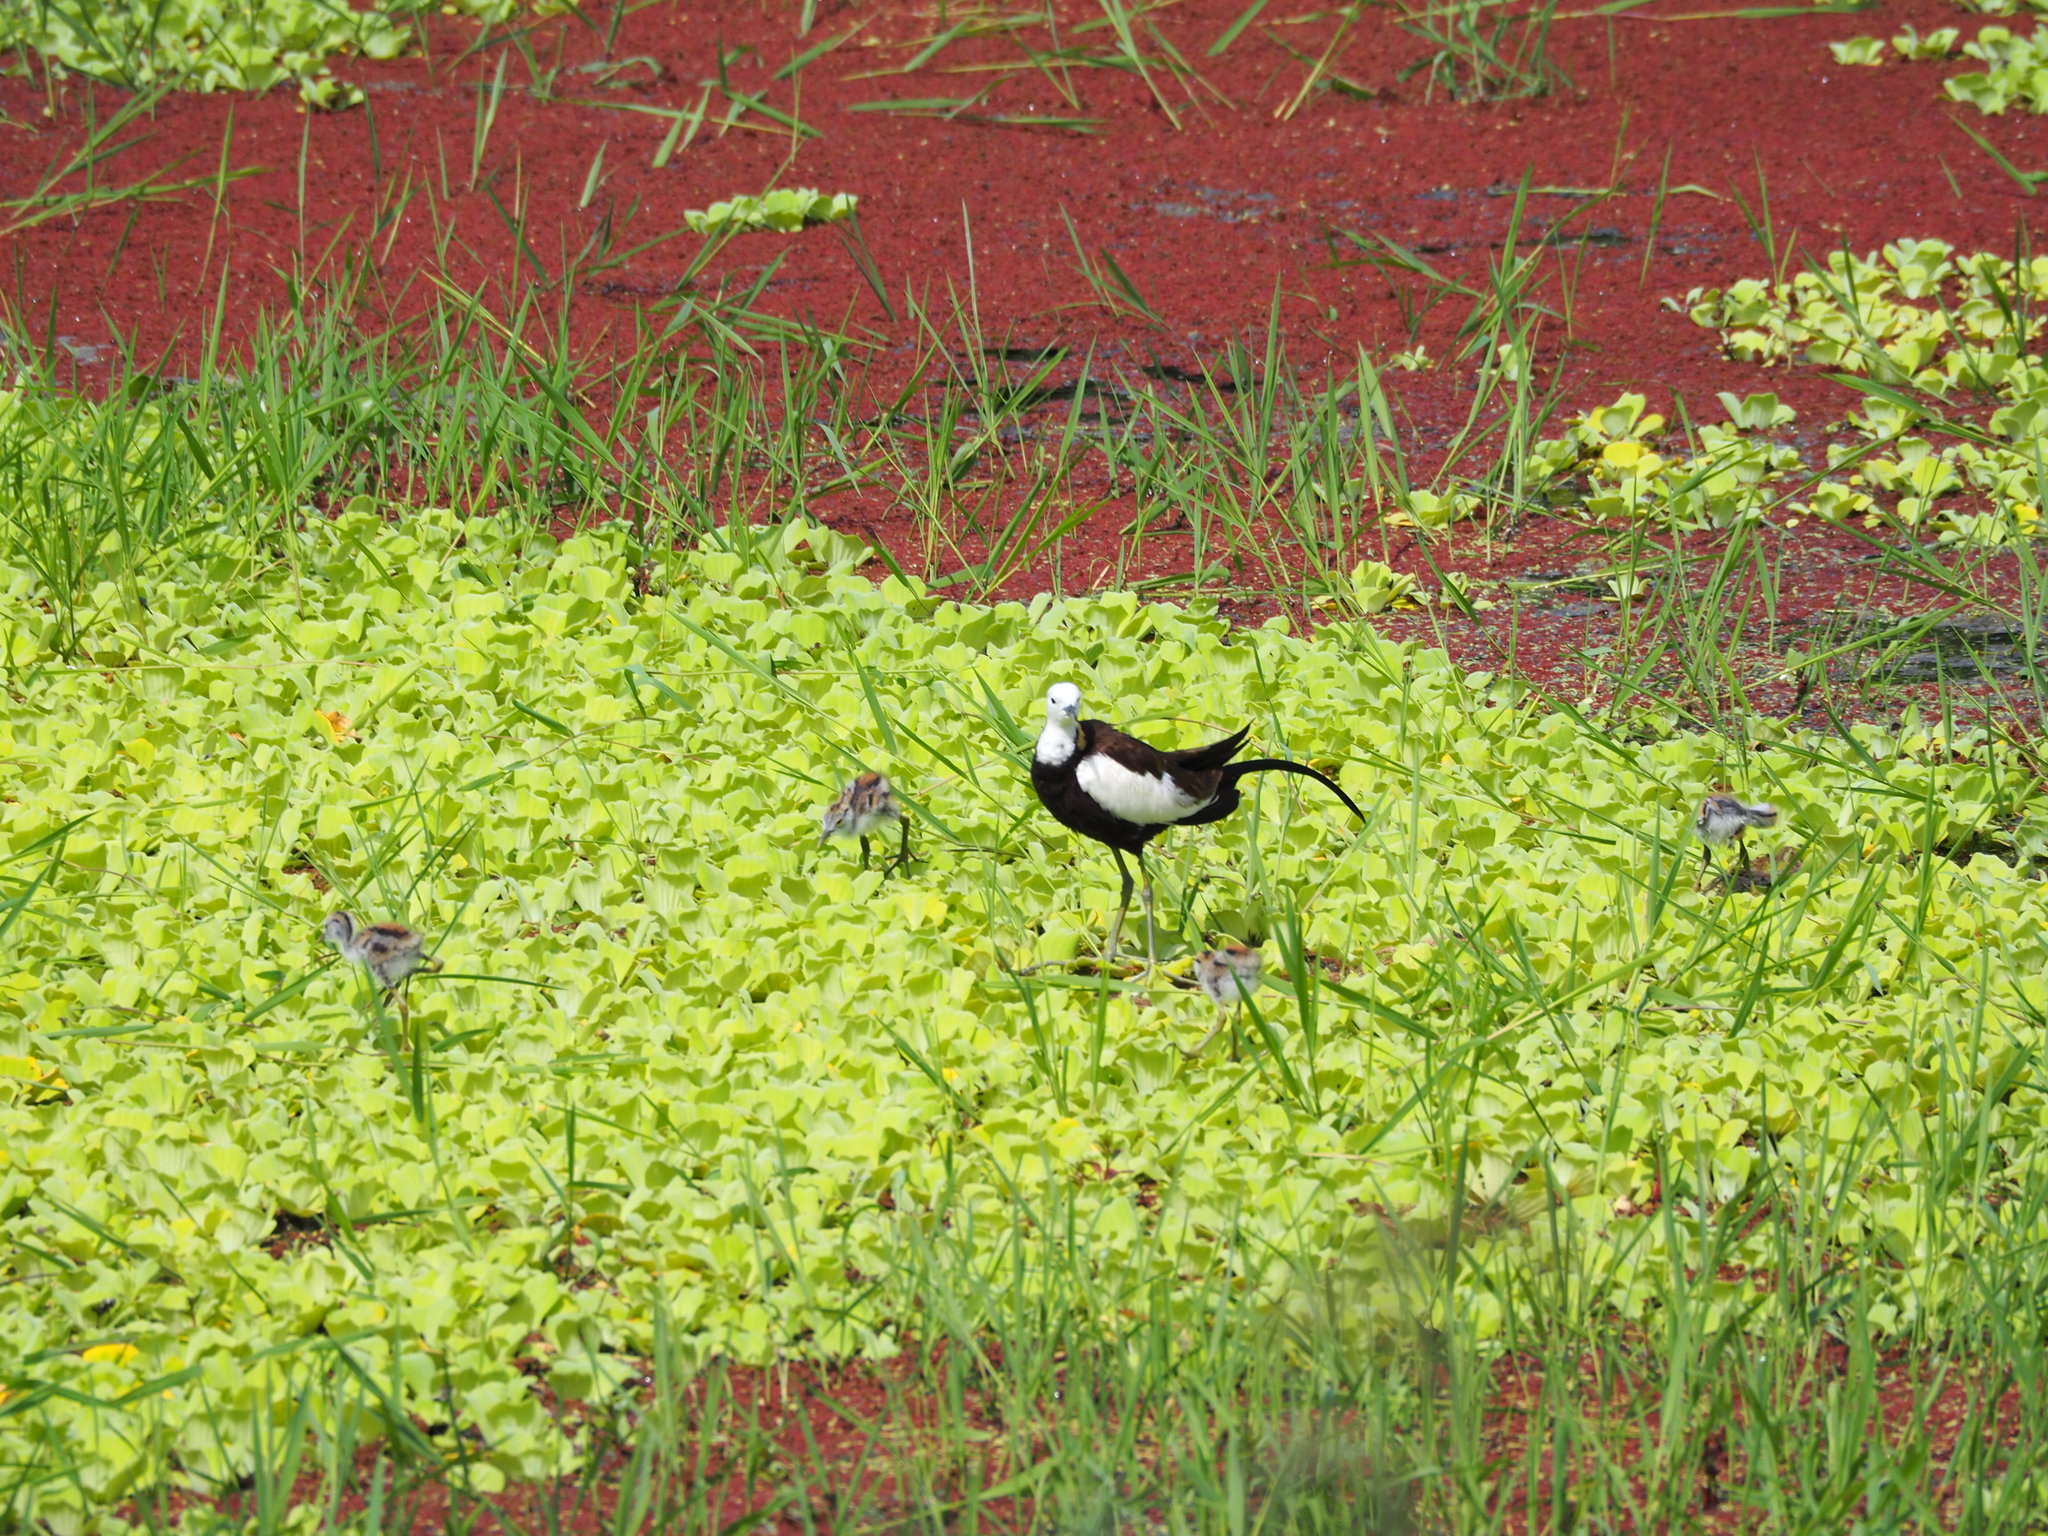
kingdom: Animalia
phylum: Chordata
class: Aves
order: Charadriiformes
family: Jacanidae
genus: Hydrophasianus
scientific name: Hydrophasianus chirurgus
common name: Pheasant-tailed jacana
